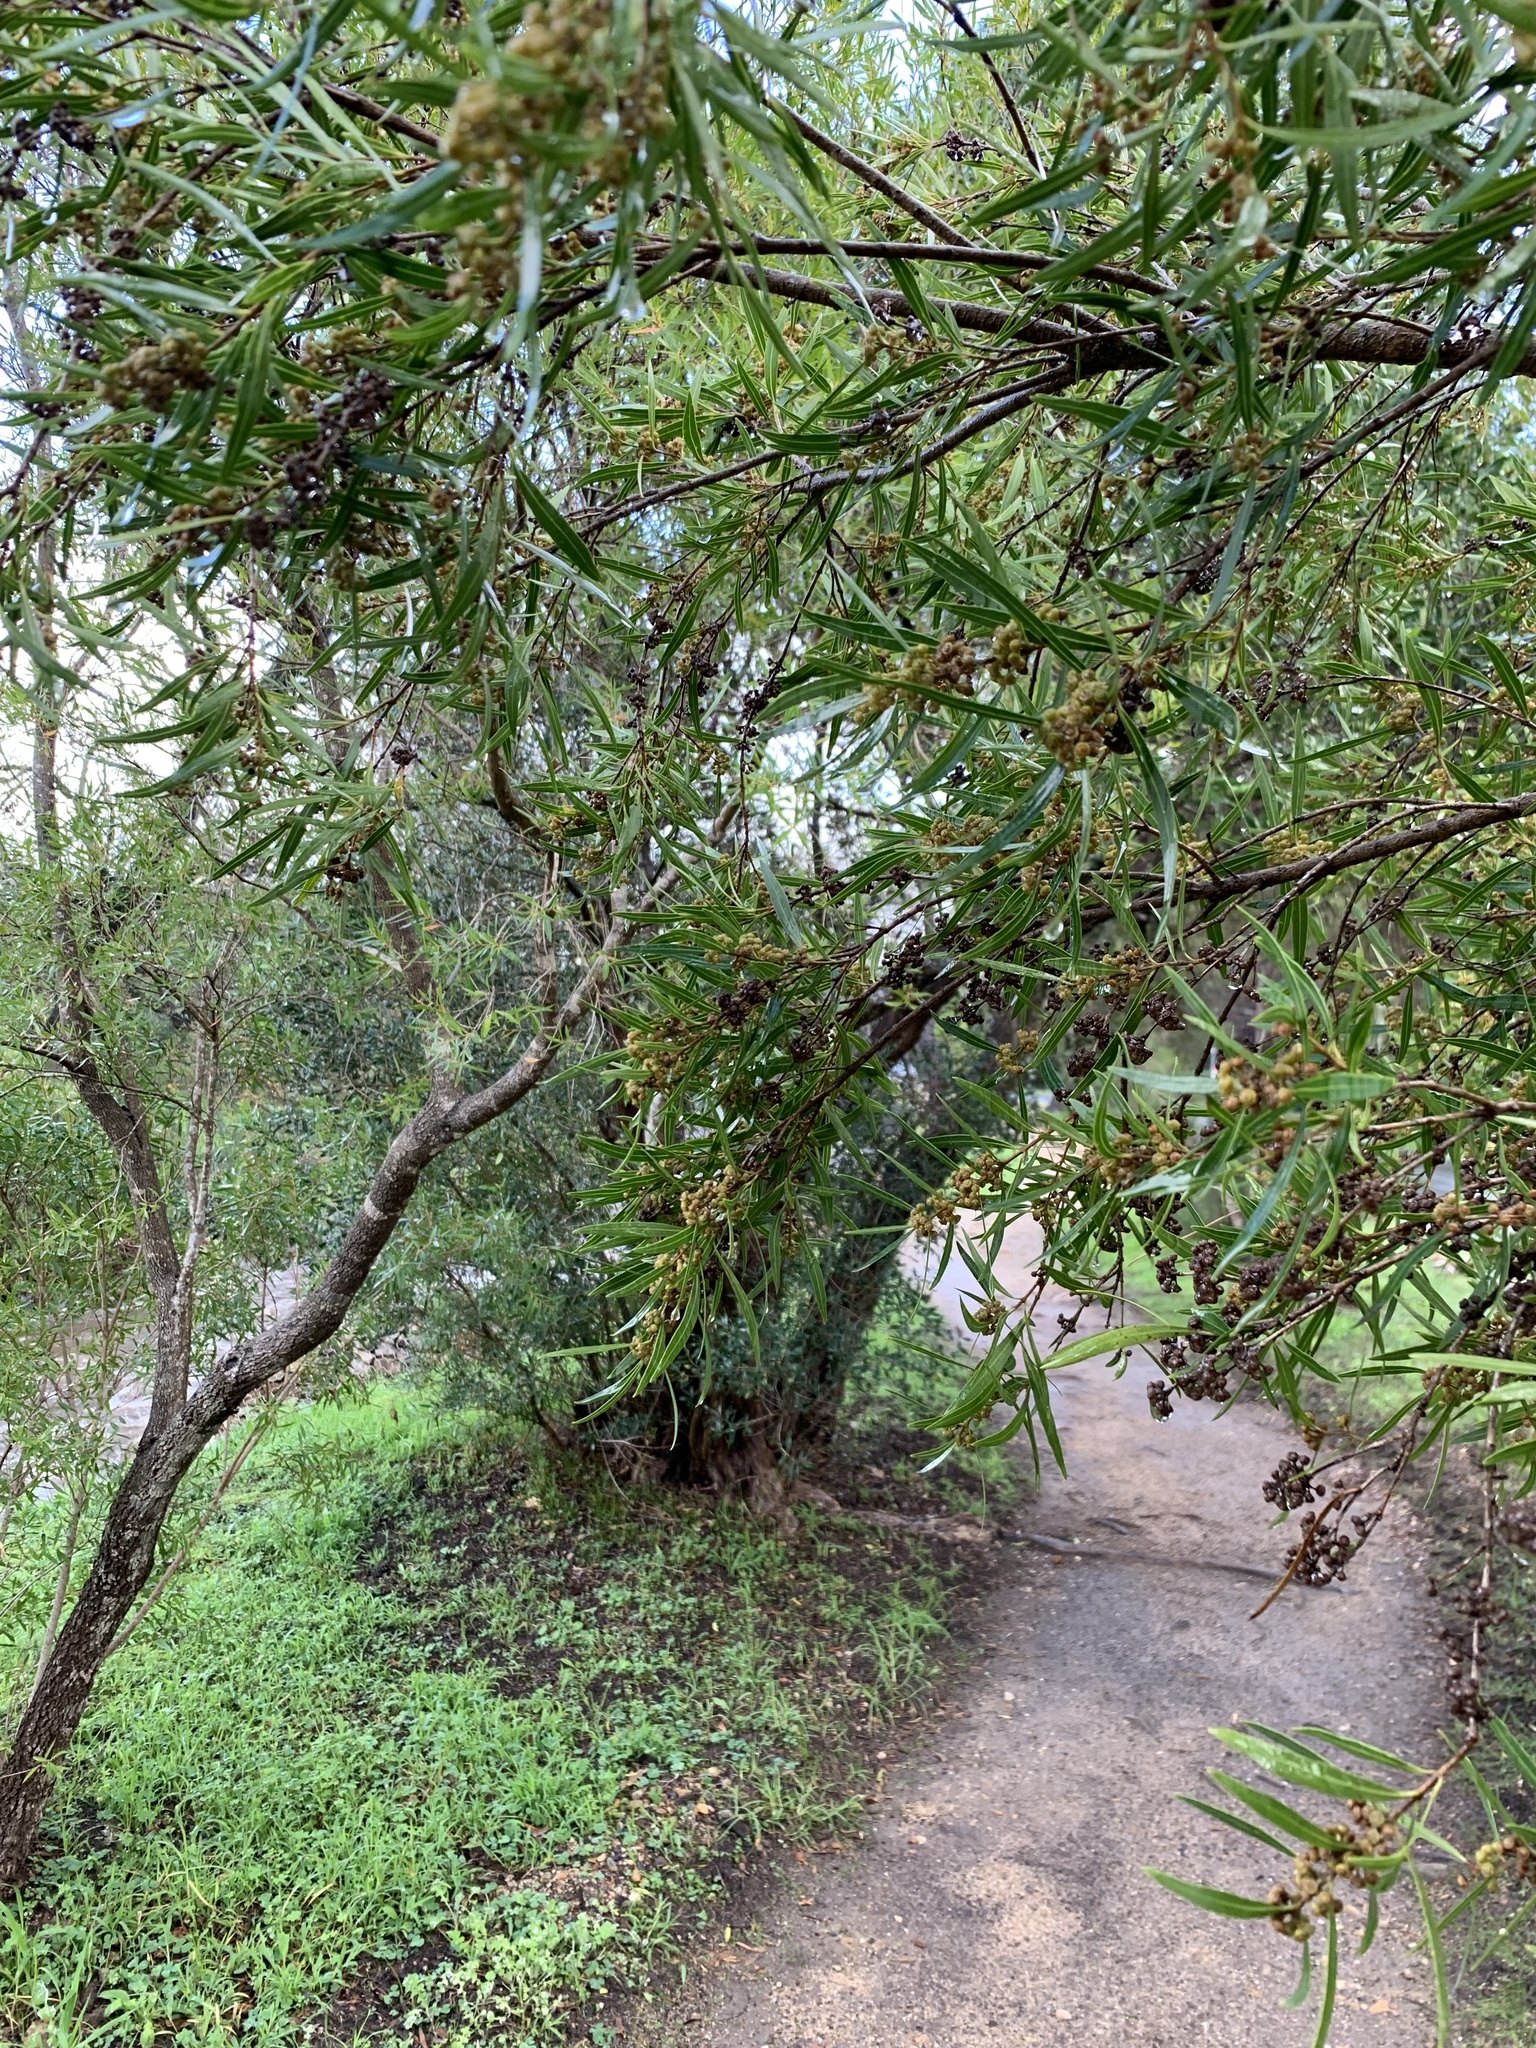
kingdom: Plantae
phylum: Tracheophyta
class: Magnoliopsida
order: Myrtales
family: Myrtaceae
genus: Callistemon
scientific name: Callistemon lanceolatus
